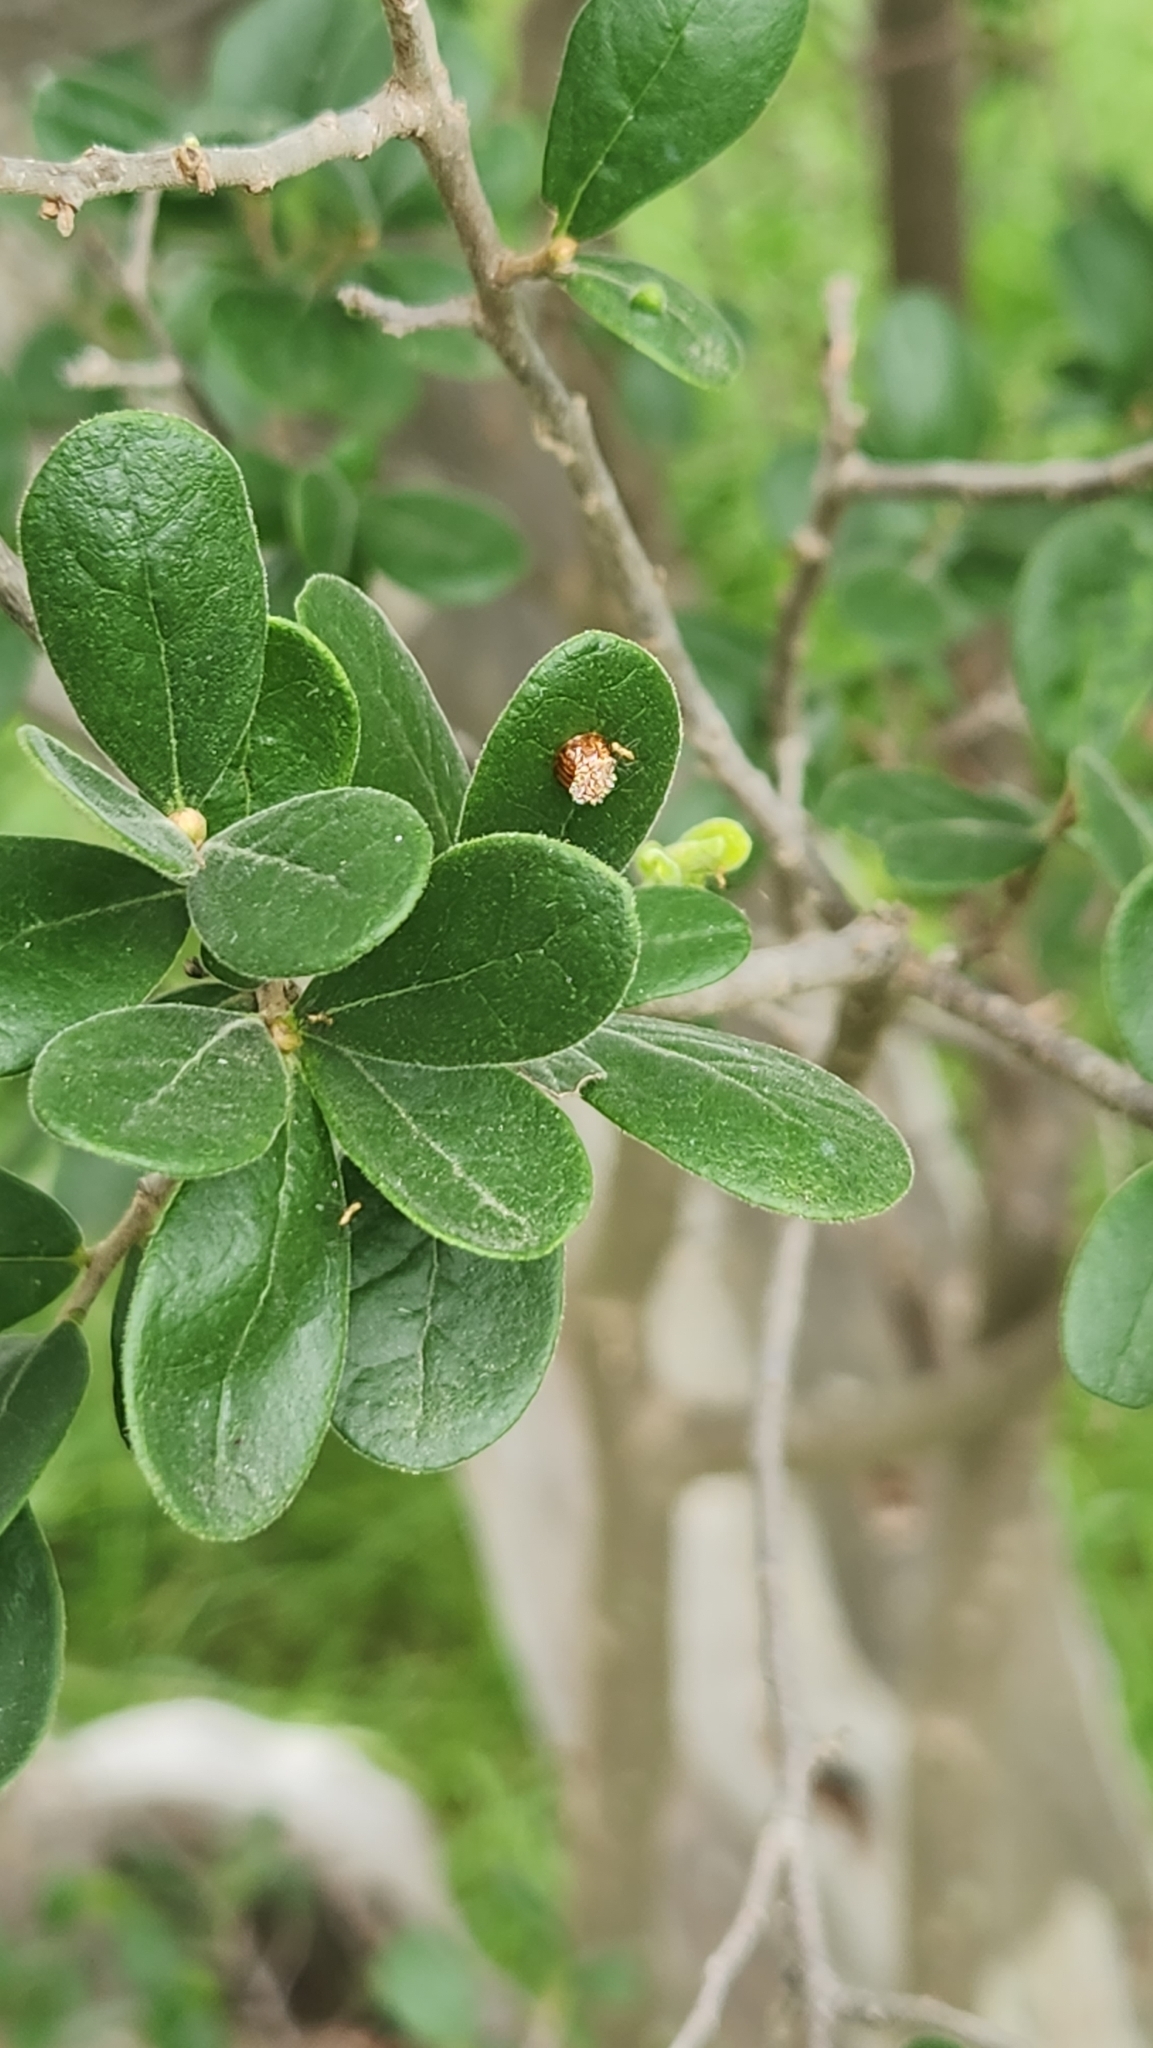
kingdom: Plantae
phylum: Tracheophyta
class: Magnoliopsida
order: Ericales
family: Ebenaceae
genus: Diospyros
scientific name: Diospyros texana
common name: Texas persimmon
